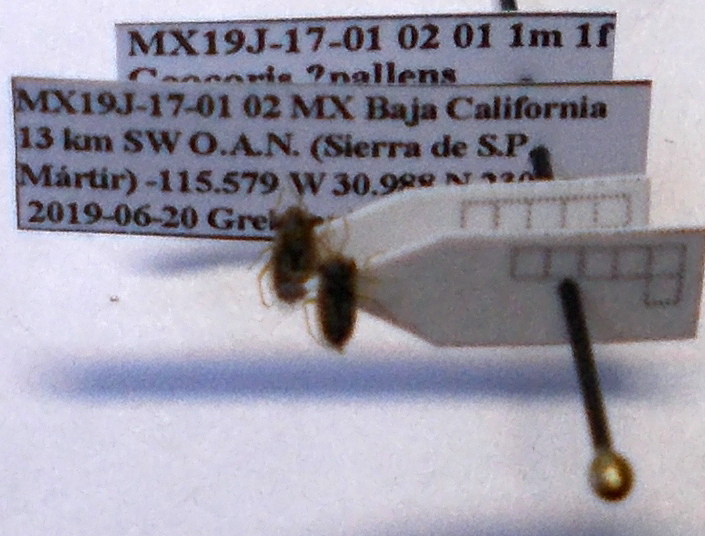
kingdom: Animalia
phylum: Arthropoda
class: Insecta
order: Hemiptera
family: Geocoridae
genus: Geocoris
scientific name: Geocoris pallens
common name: Big-eyed bug
